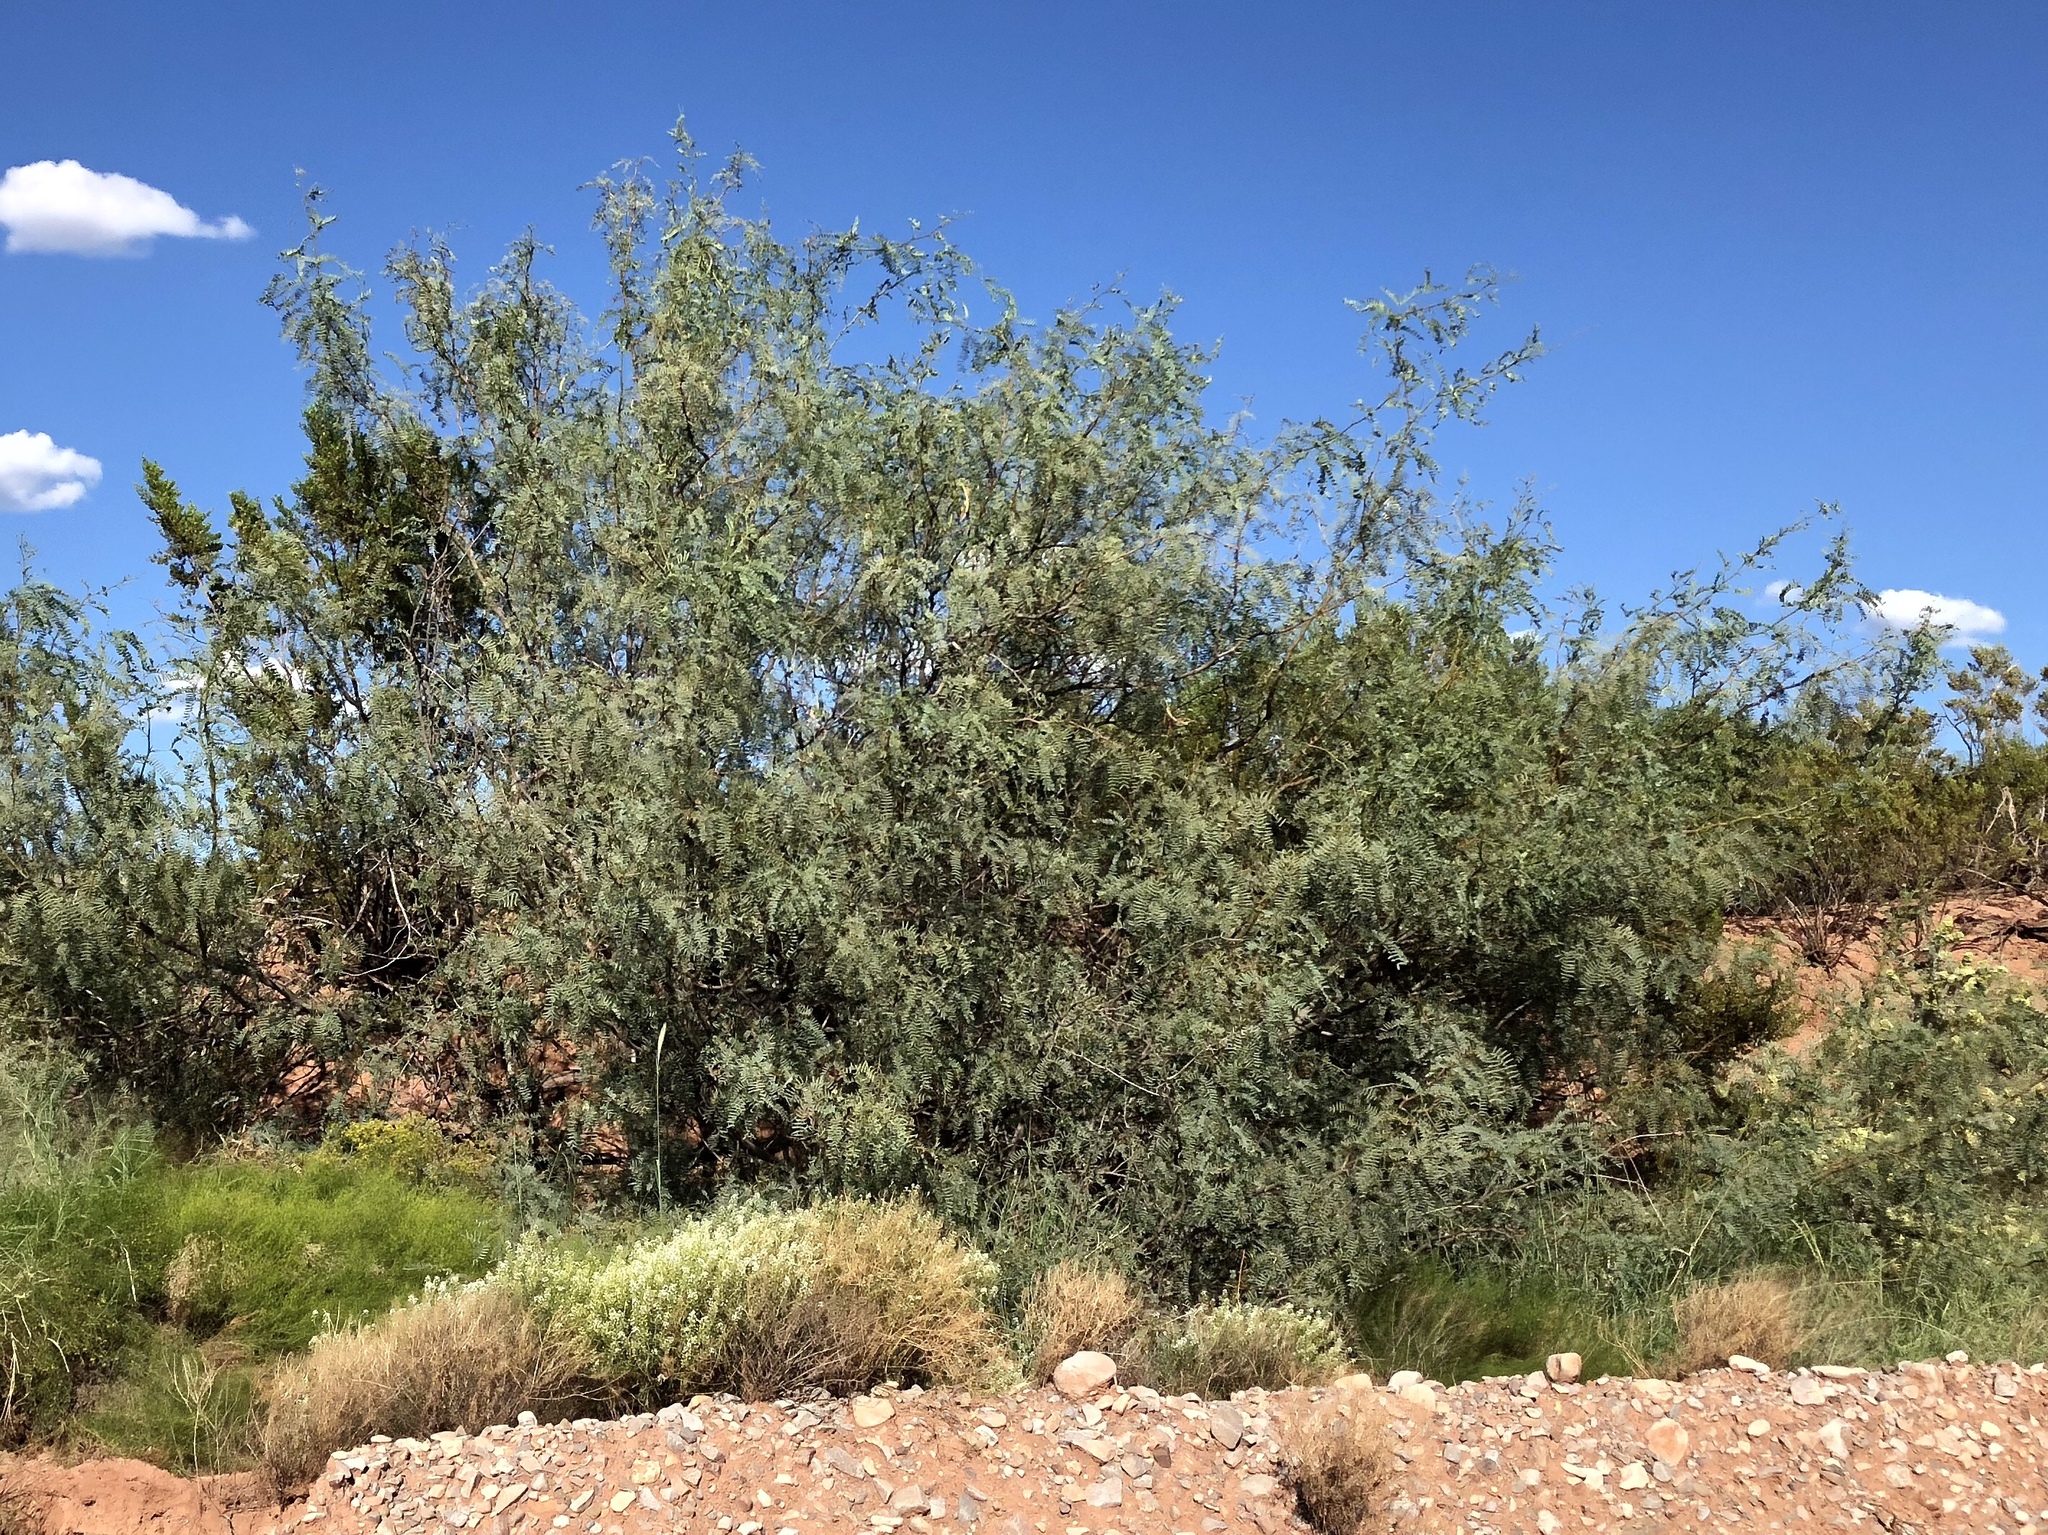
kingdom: Plantae
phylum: Tracheophyta
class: Magnoliopsida
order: Fabales
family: Fabaceae
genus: Prosopis
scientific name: Prosopis glandulosa
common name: Honey mesquite
